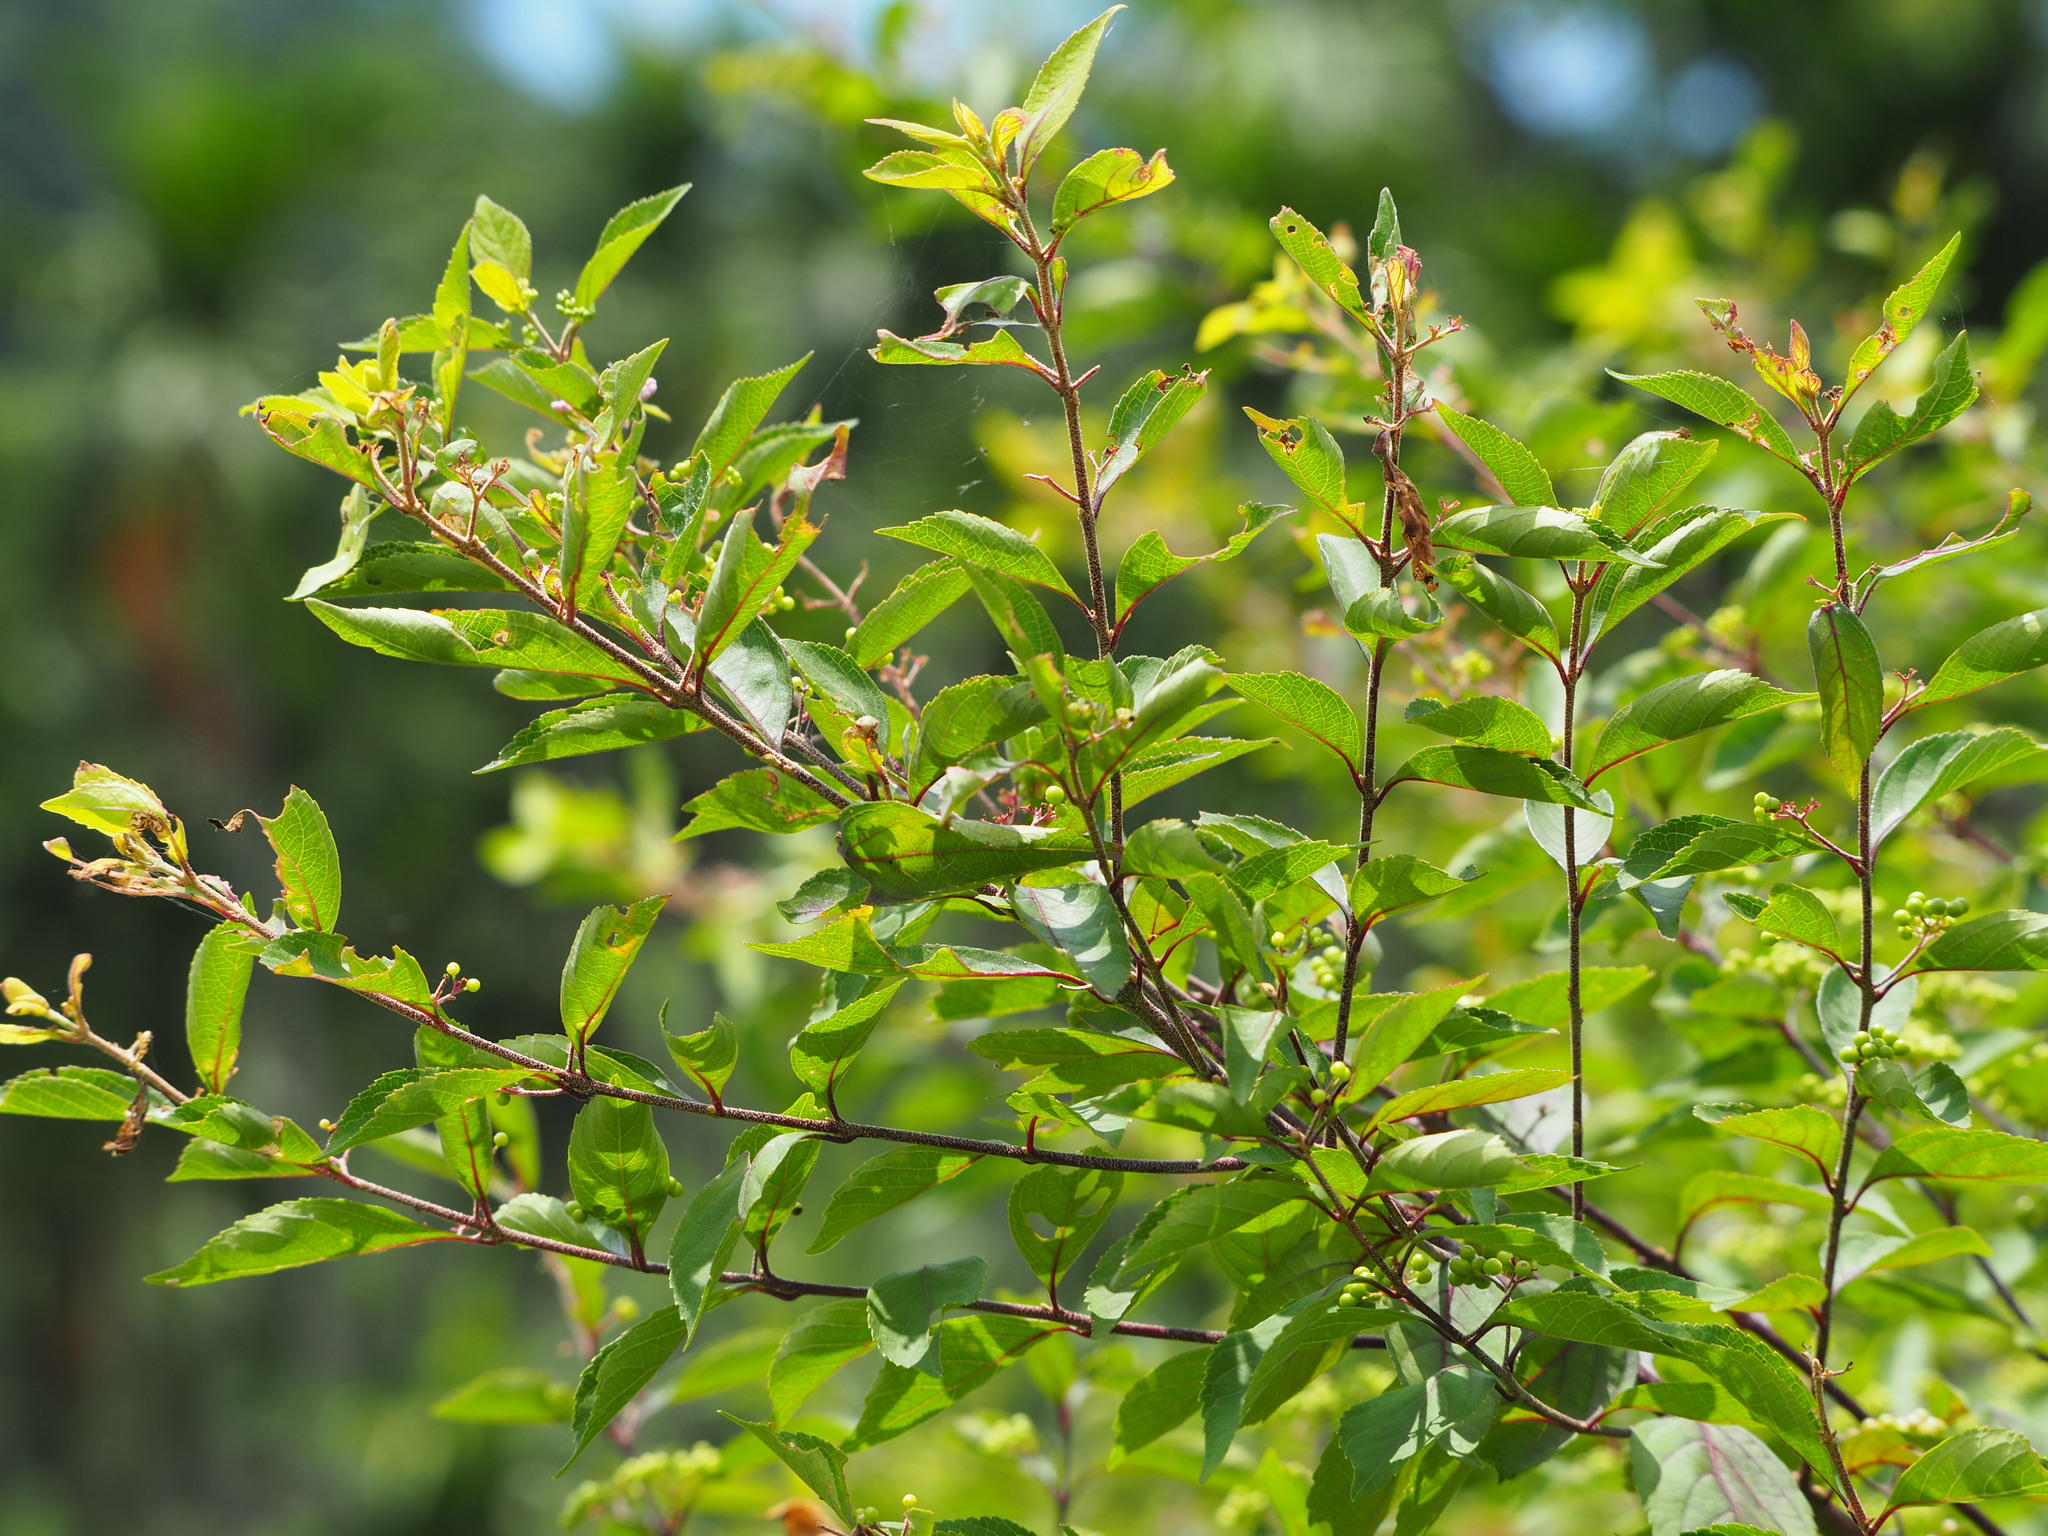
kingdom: Plantae
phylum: Tracheophyta
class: Magnoliopsida
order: Lamiales
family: Lamiaceae
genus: Callicarpa
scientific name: Callicarpa pedunculata
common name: Velvetleaf
